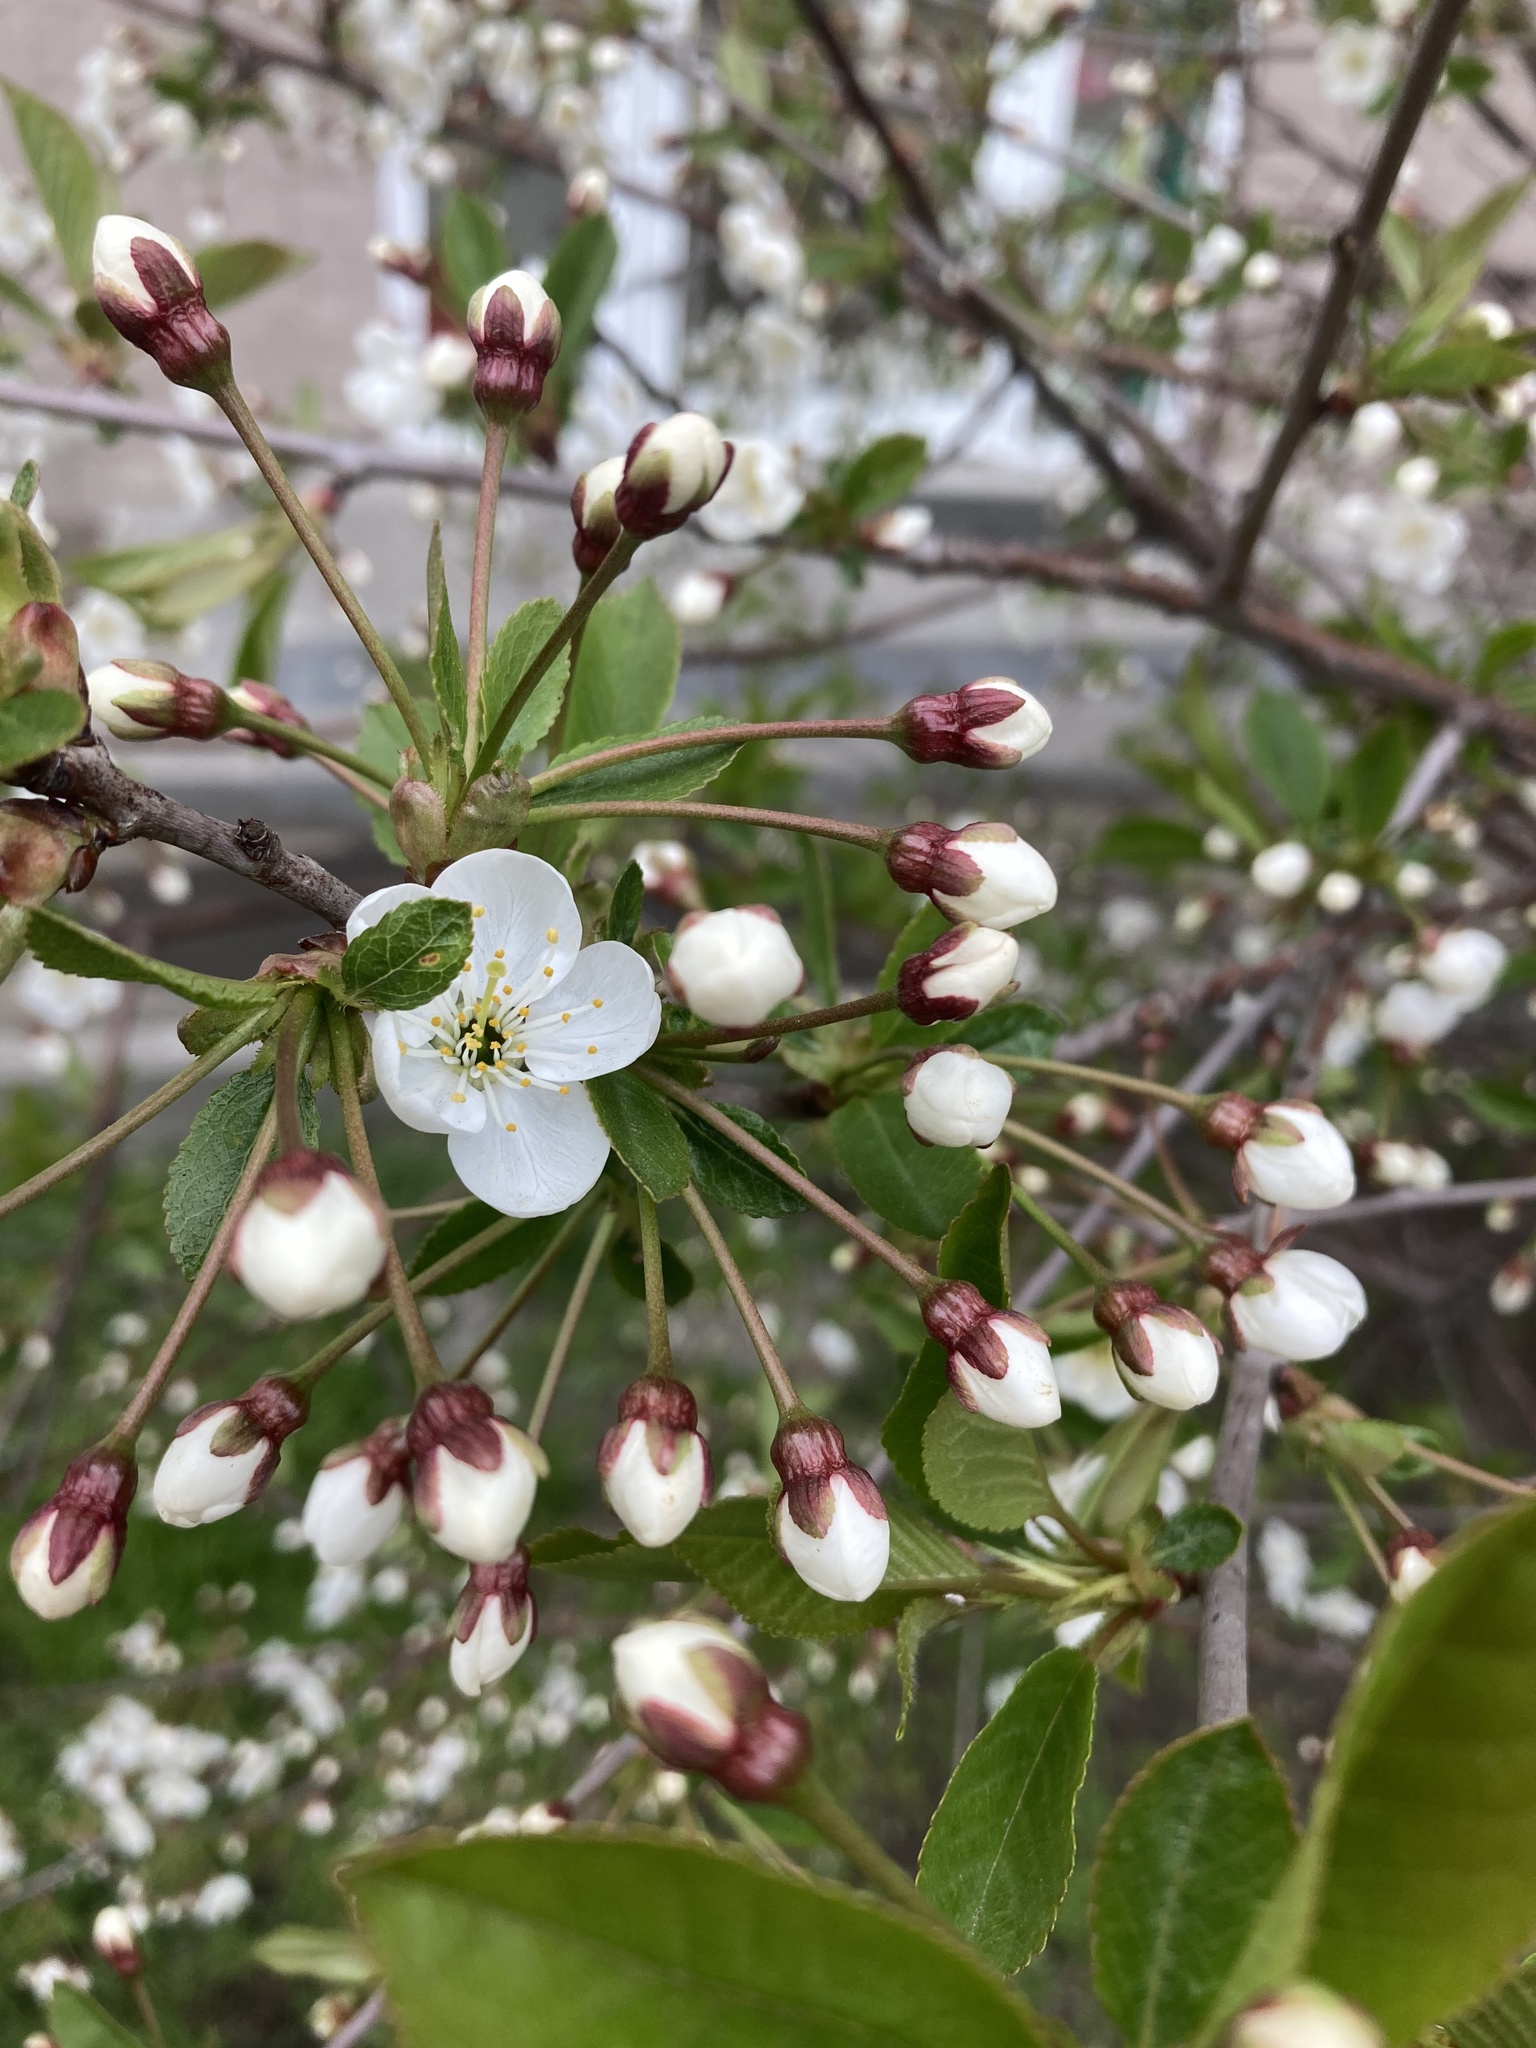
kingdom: Plantae
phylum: Tracheophyta
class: Magnoliopsida
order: Rosales
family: Rosaceae
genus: Prunus
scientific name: Prunus cerasus
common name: Morello cherry
